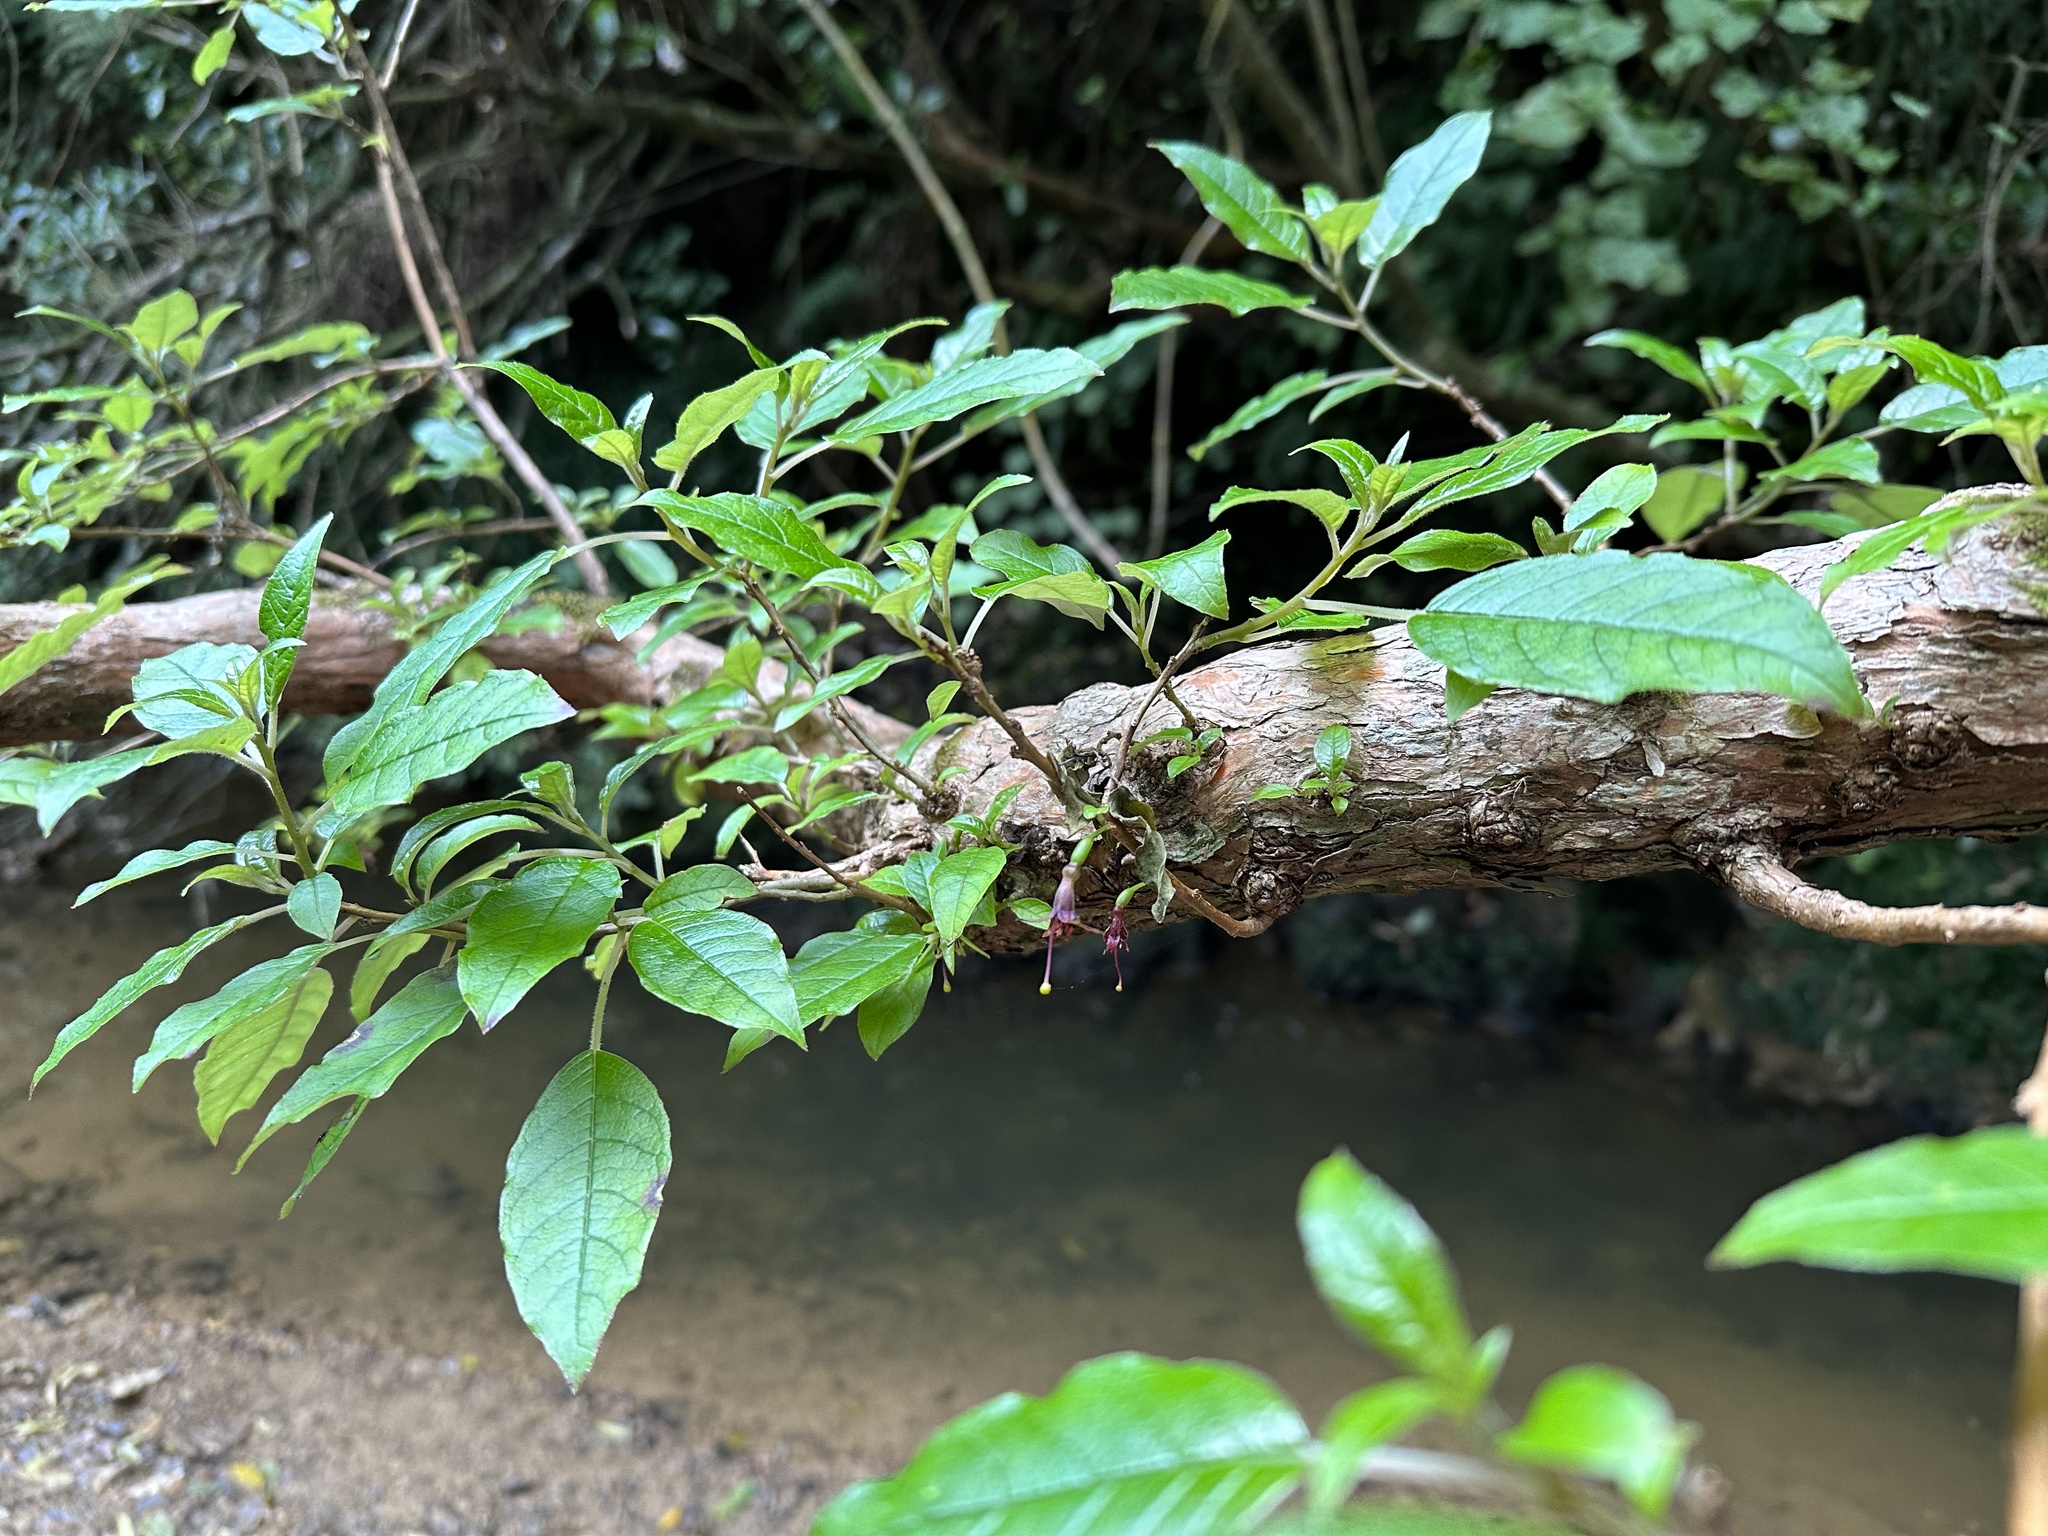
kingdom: Plantae
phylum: Tracheophyta
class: Magnoliopsida
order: Myrtales
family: Onagraceae
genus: Fuchsia
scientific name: Fuchsia excorticata
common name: Tree fuchsia
